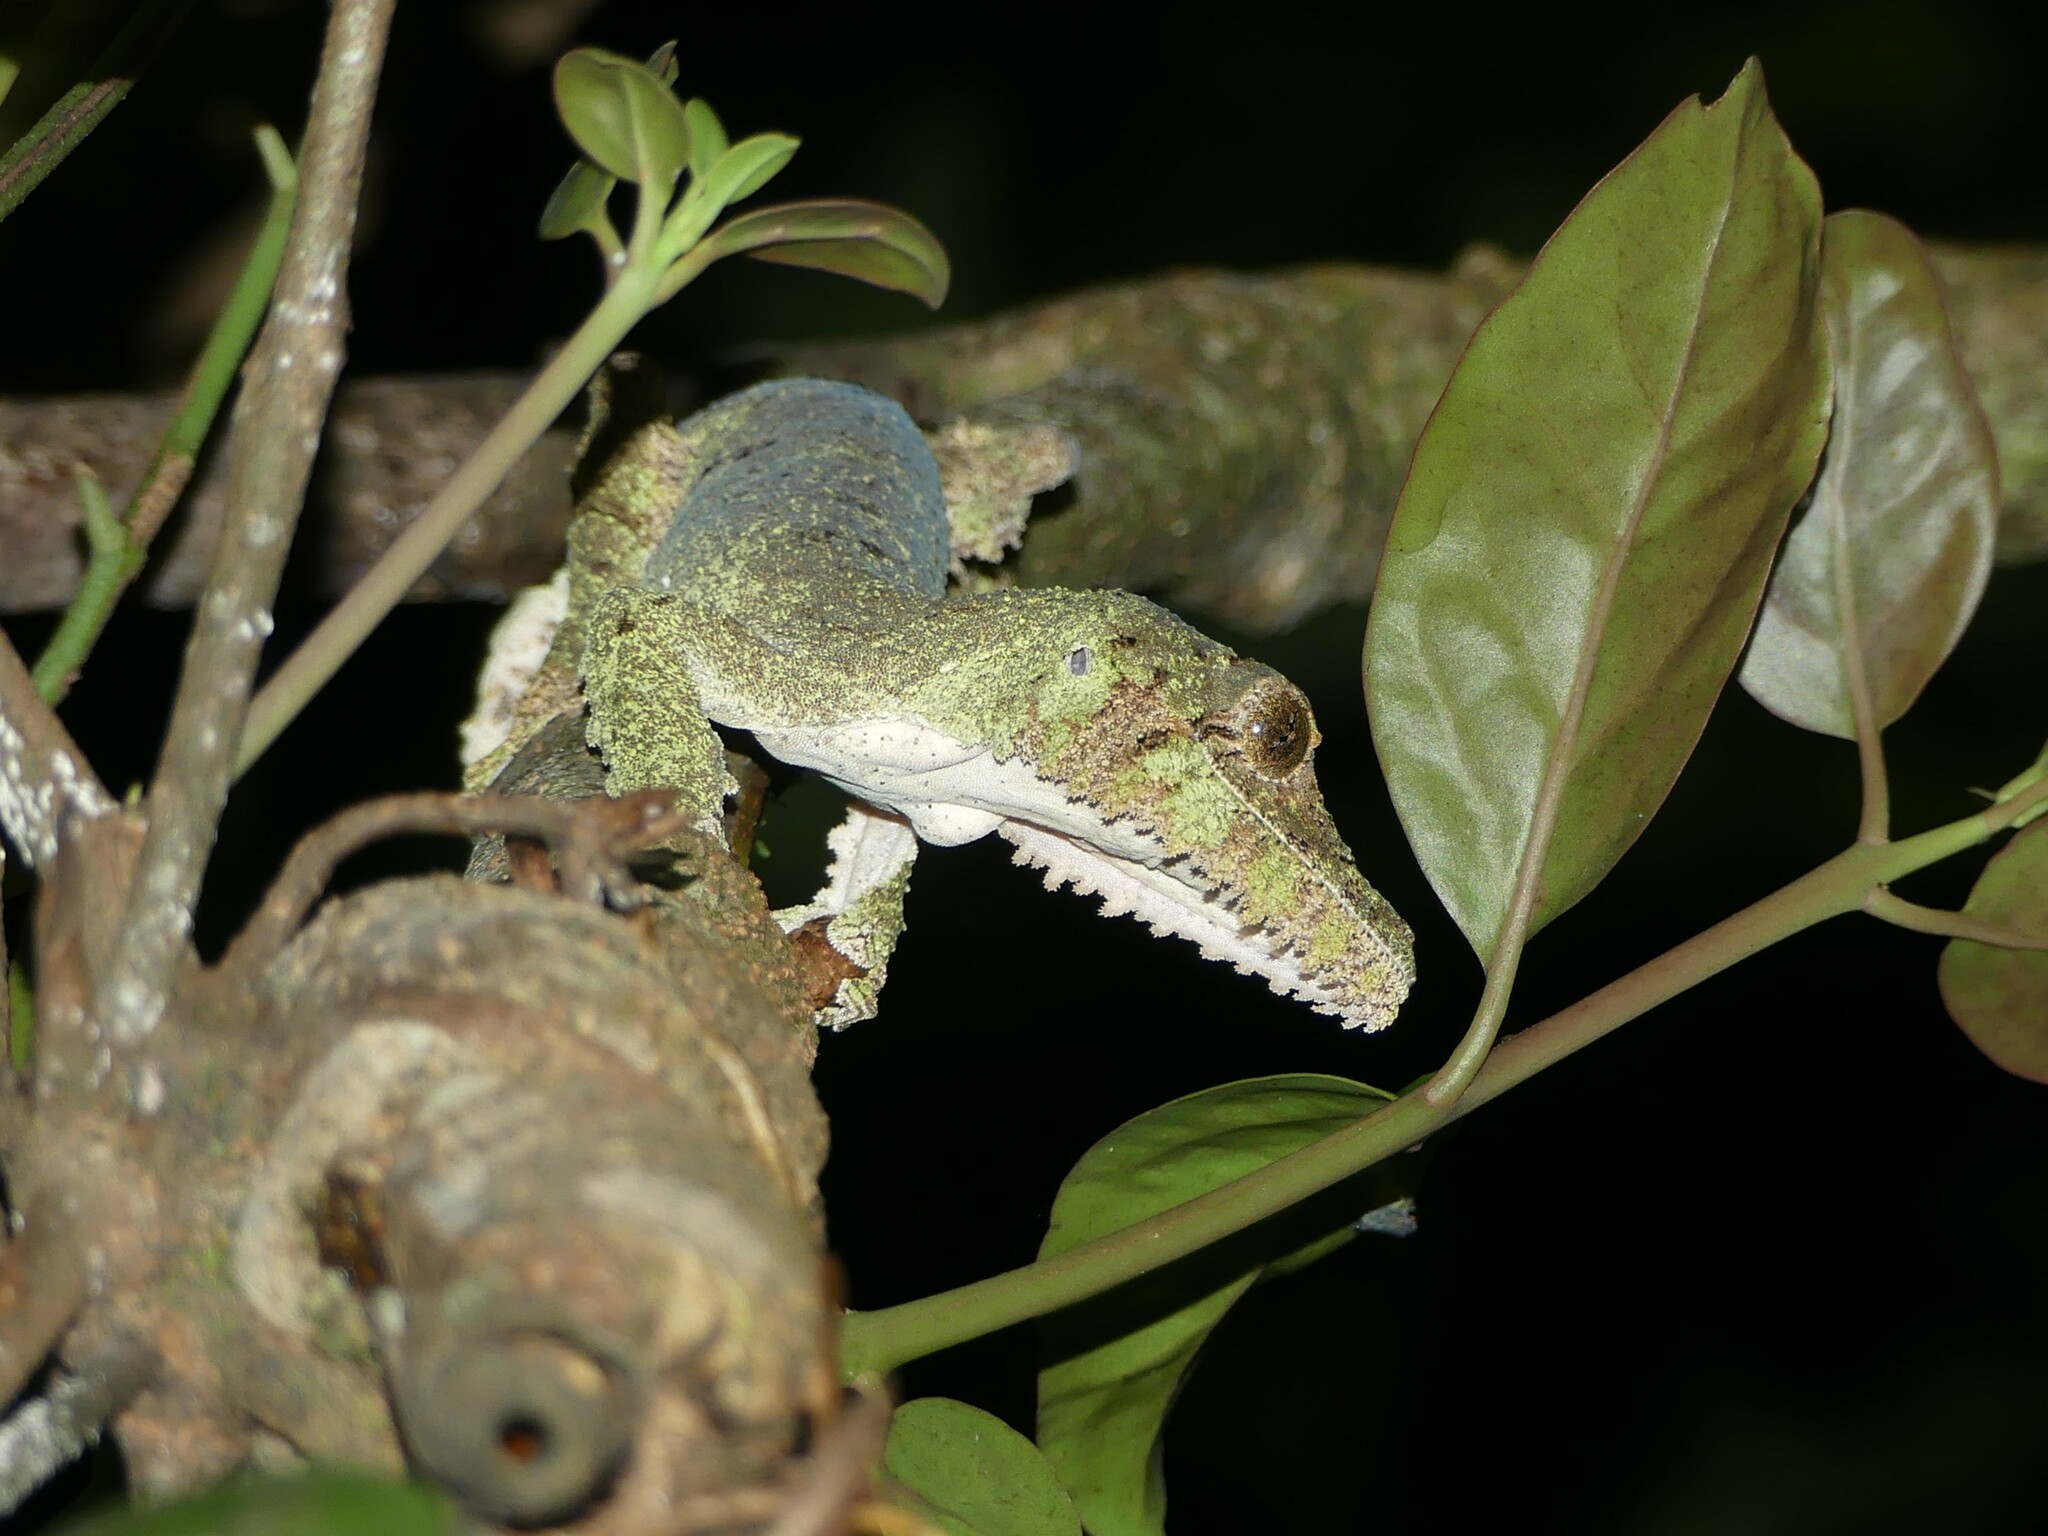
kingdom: Animalia
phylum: Chordata
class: Squamata
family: Gekkonidae
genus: Uroplatus
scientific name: Uroplatus sikorae
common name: Southern flat-tail gecko
